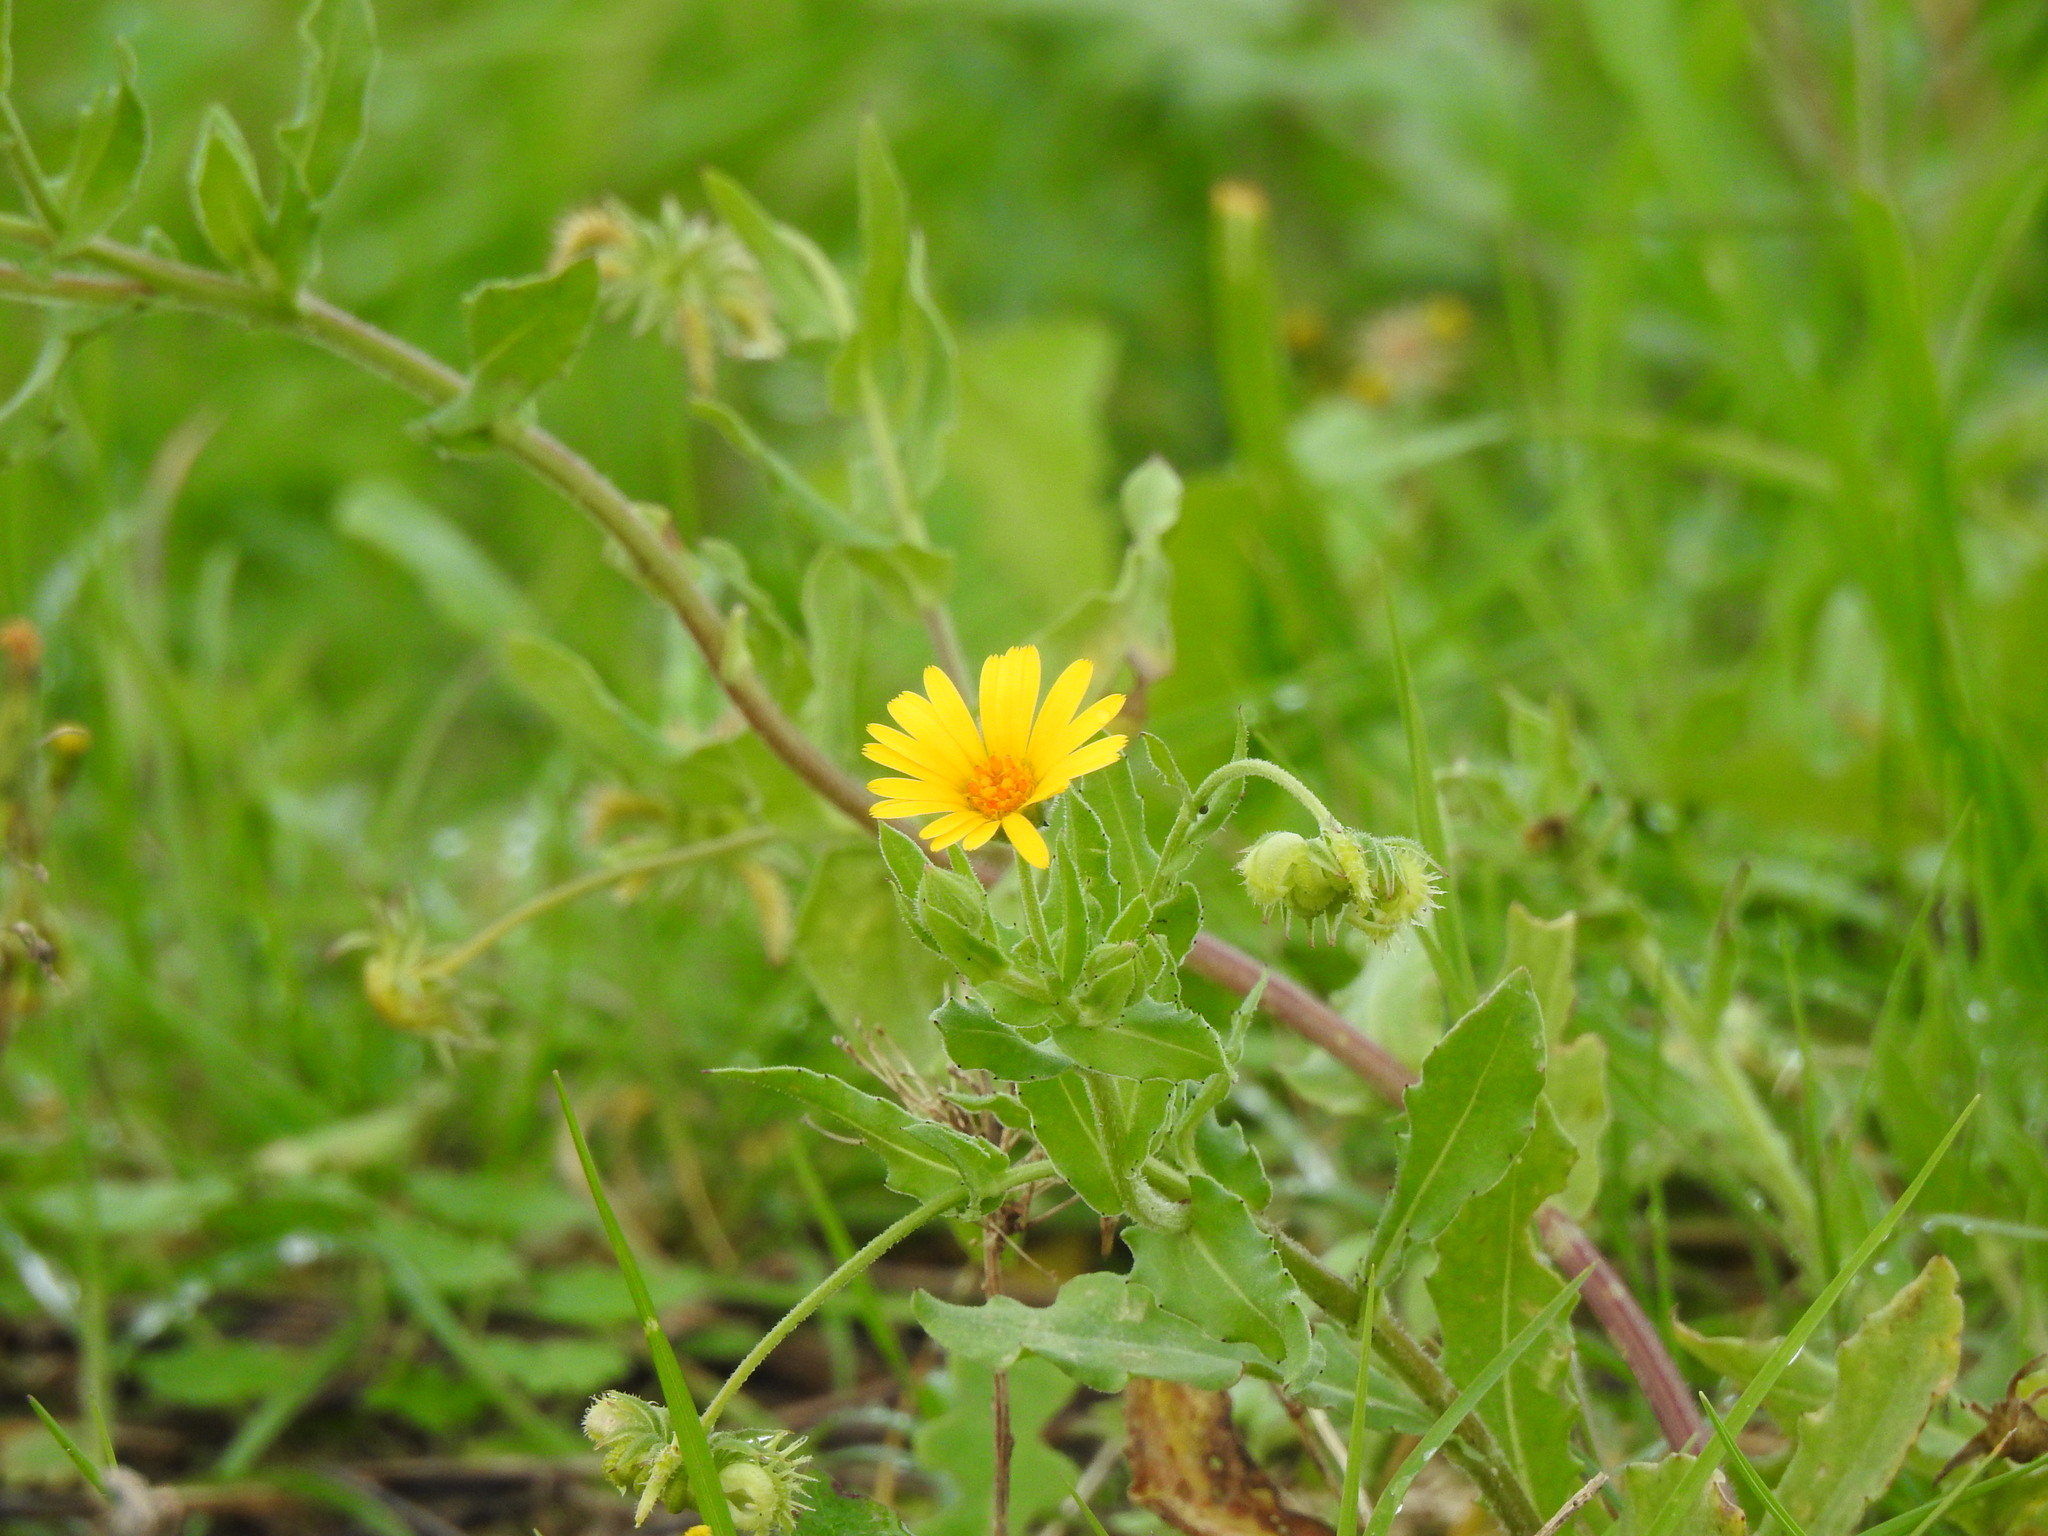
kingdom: Plantae
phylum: Tracheophyta
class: Magnoliopsida
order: Asterales
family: Asteraceae
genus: Calendula
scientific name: Calendula arvensis
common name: Field marigold
